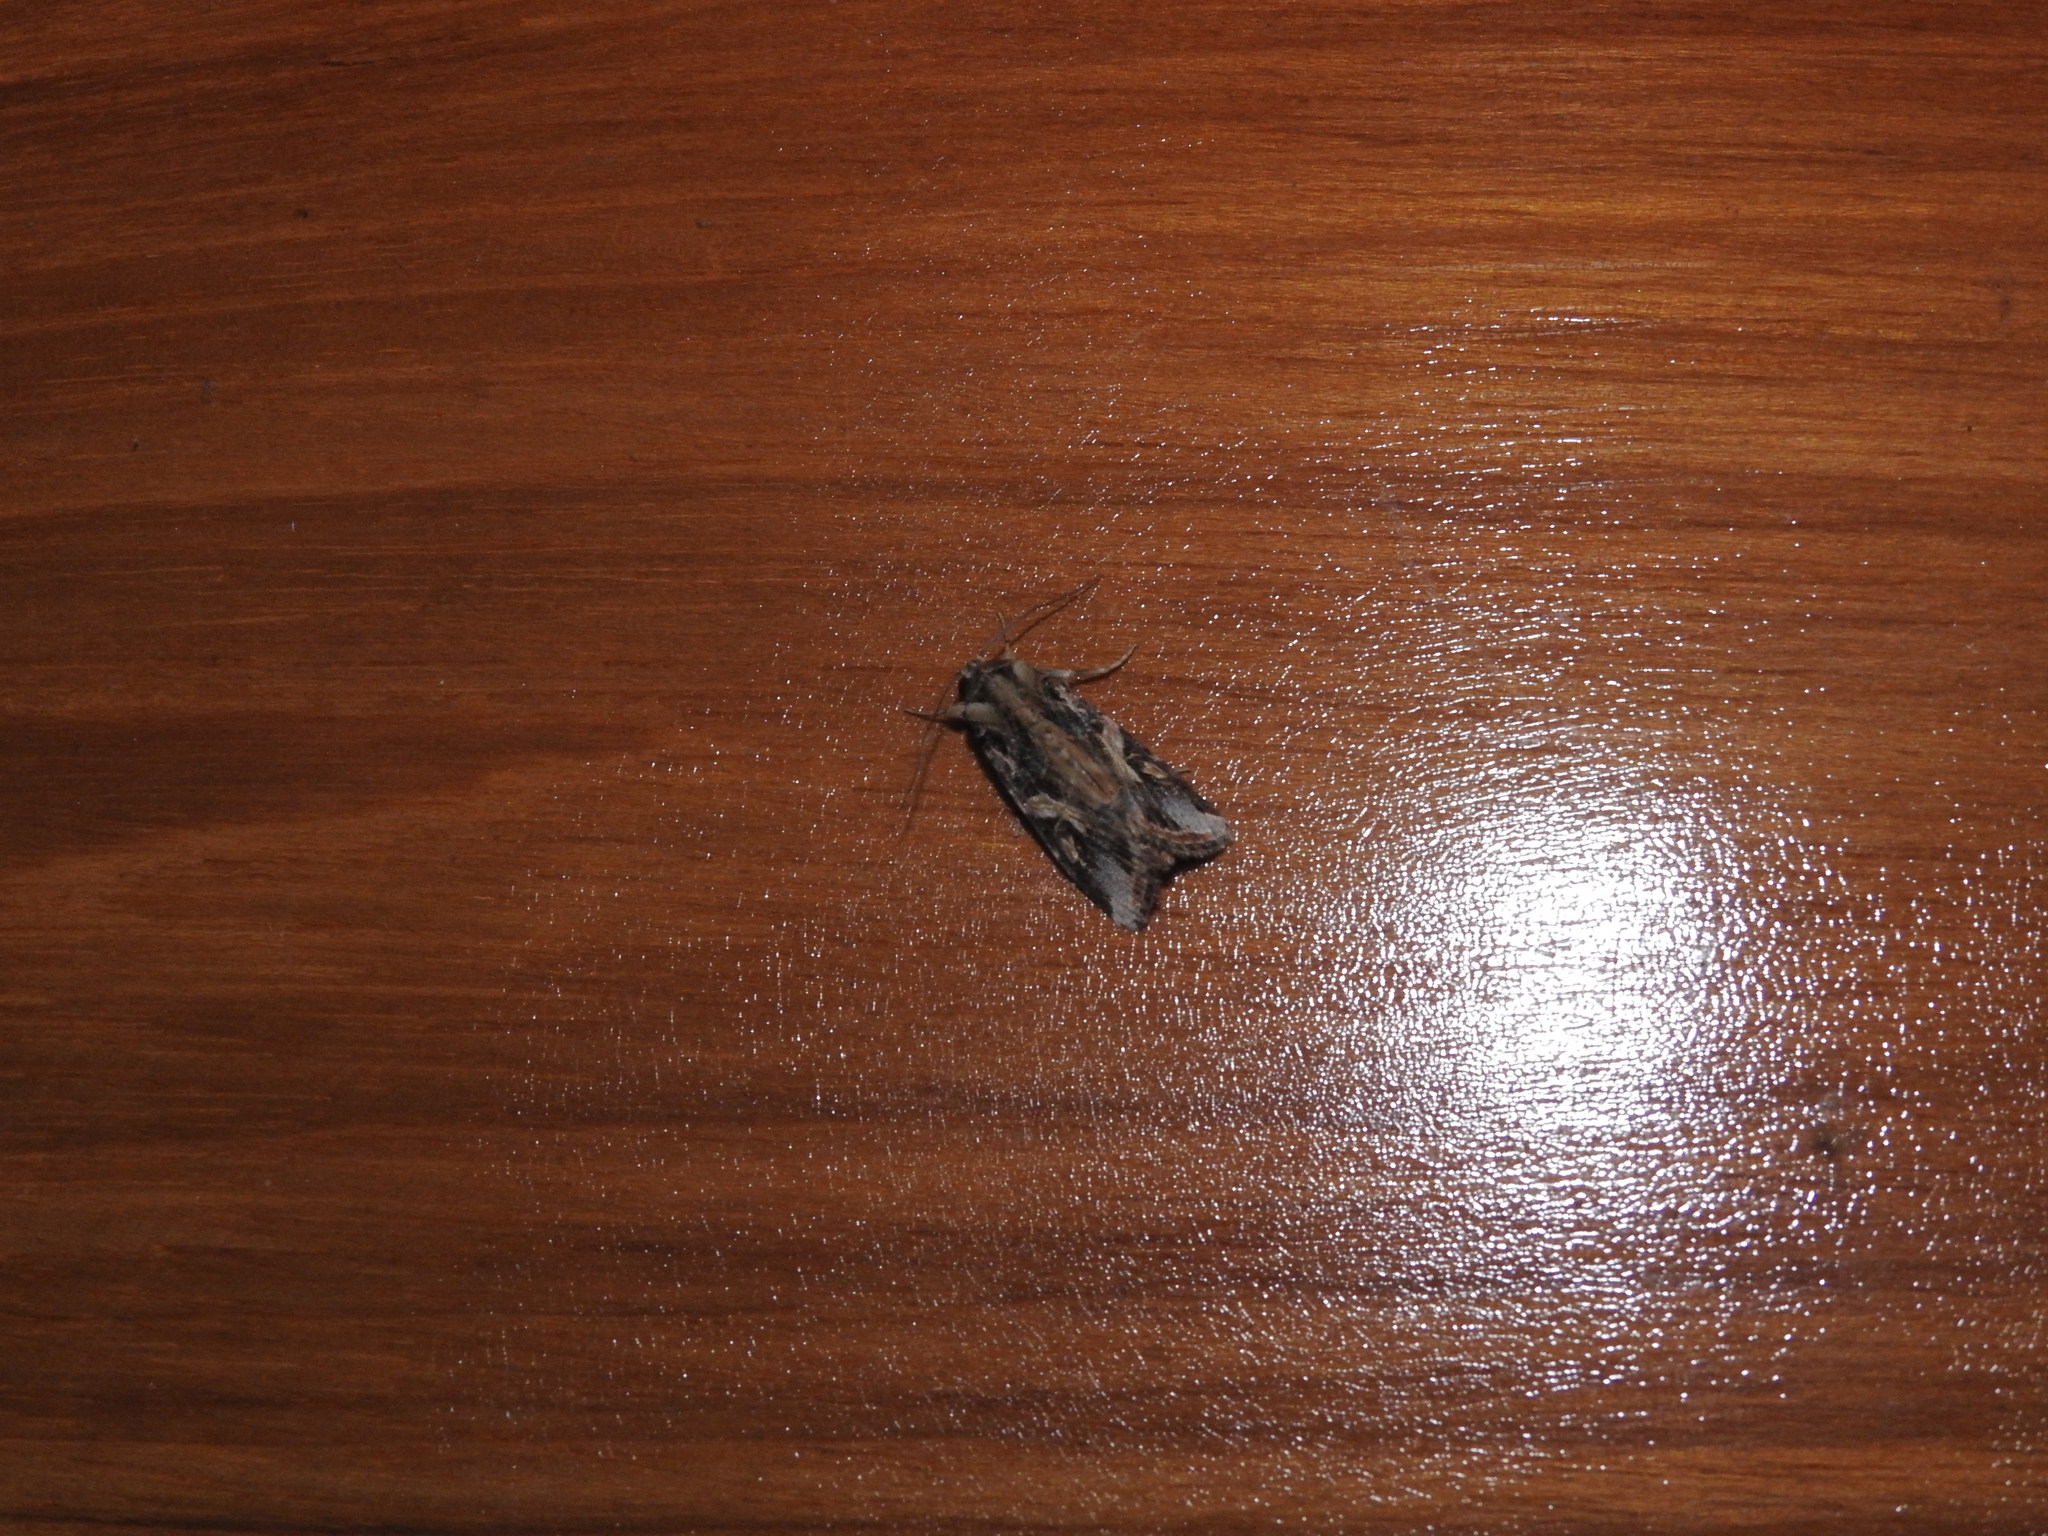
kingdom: Animalia
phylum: Arthropoda
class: Insecta
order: Lepidoptera
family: Noctuidae
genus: Spodoptera
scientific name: Spodoptera litura
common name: Asian cotton leafworm
